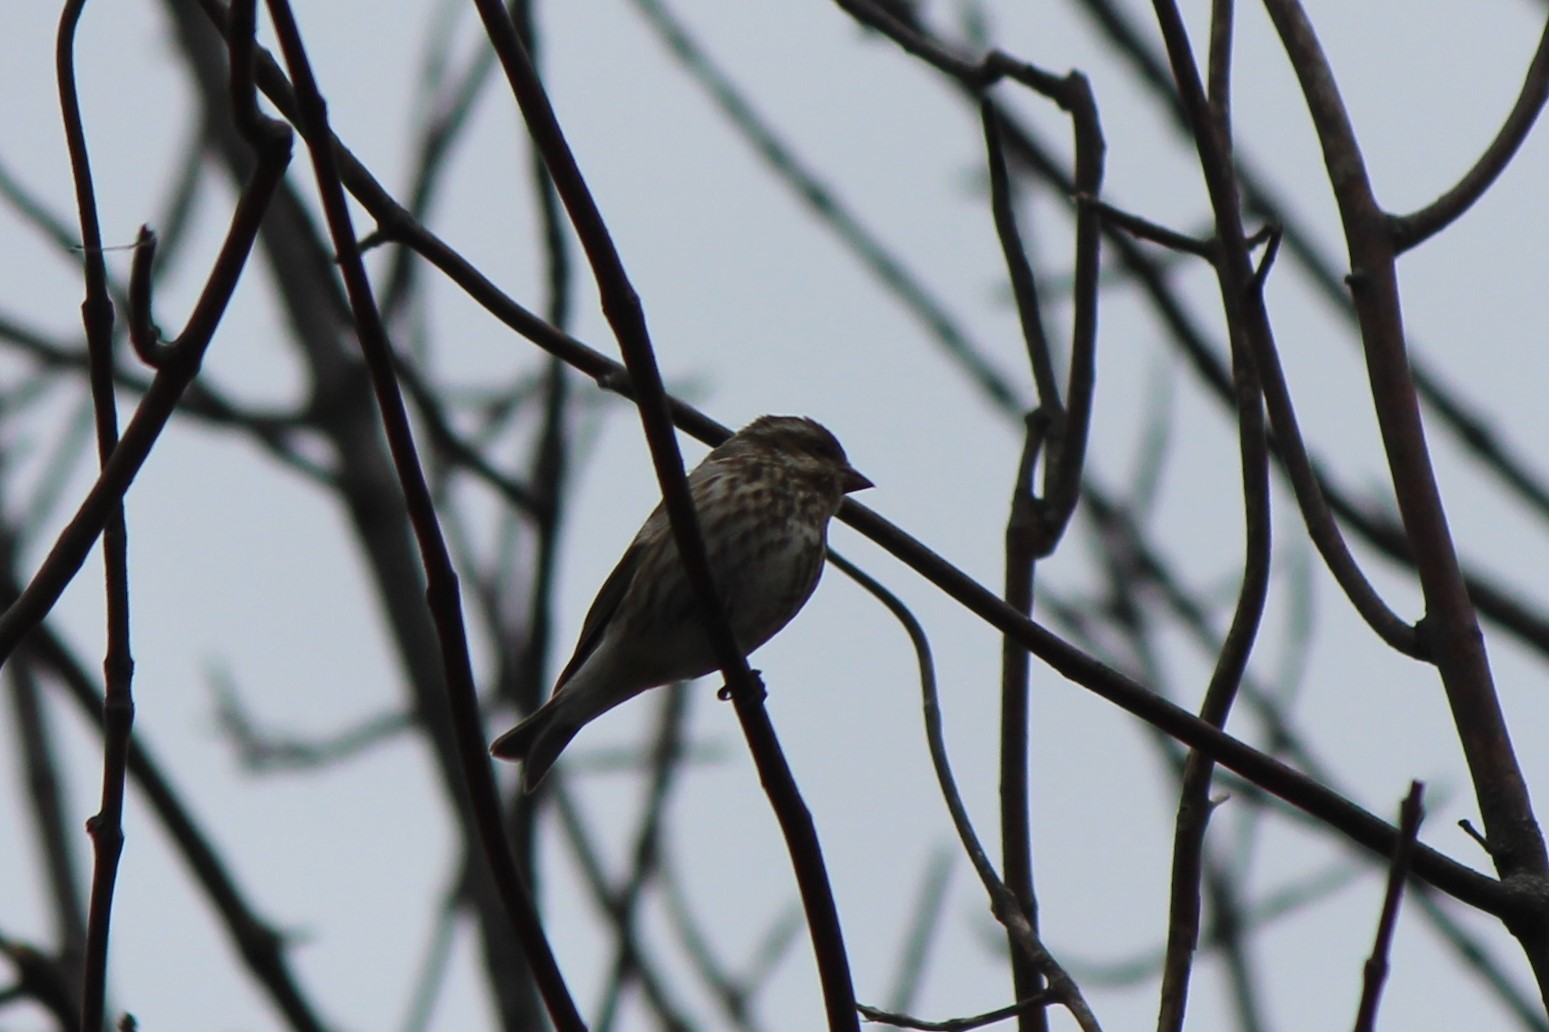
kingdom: Animalia
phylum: Chordata
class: Aves
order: Passeriformes
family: Fringillidae
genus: Haemorhous
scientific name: Haemorhous purpureus
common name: Purple finch
